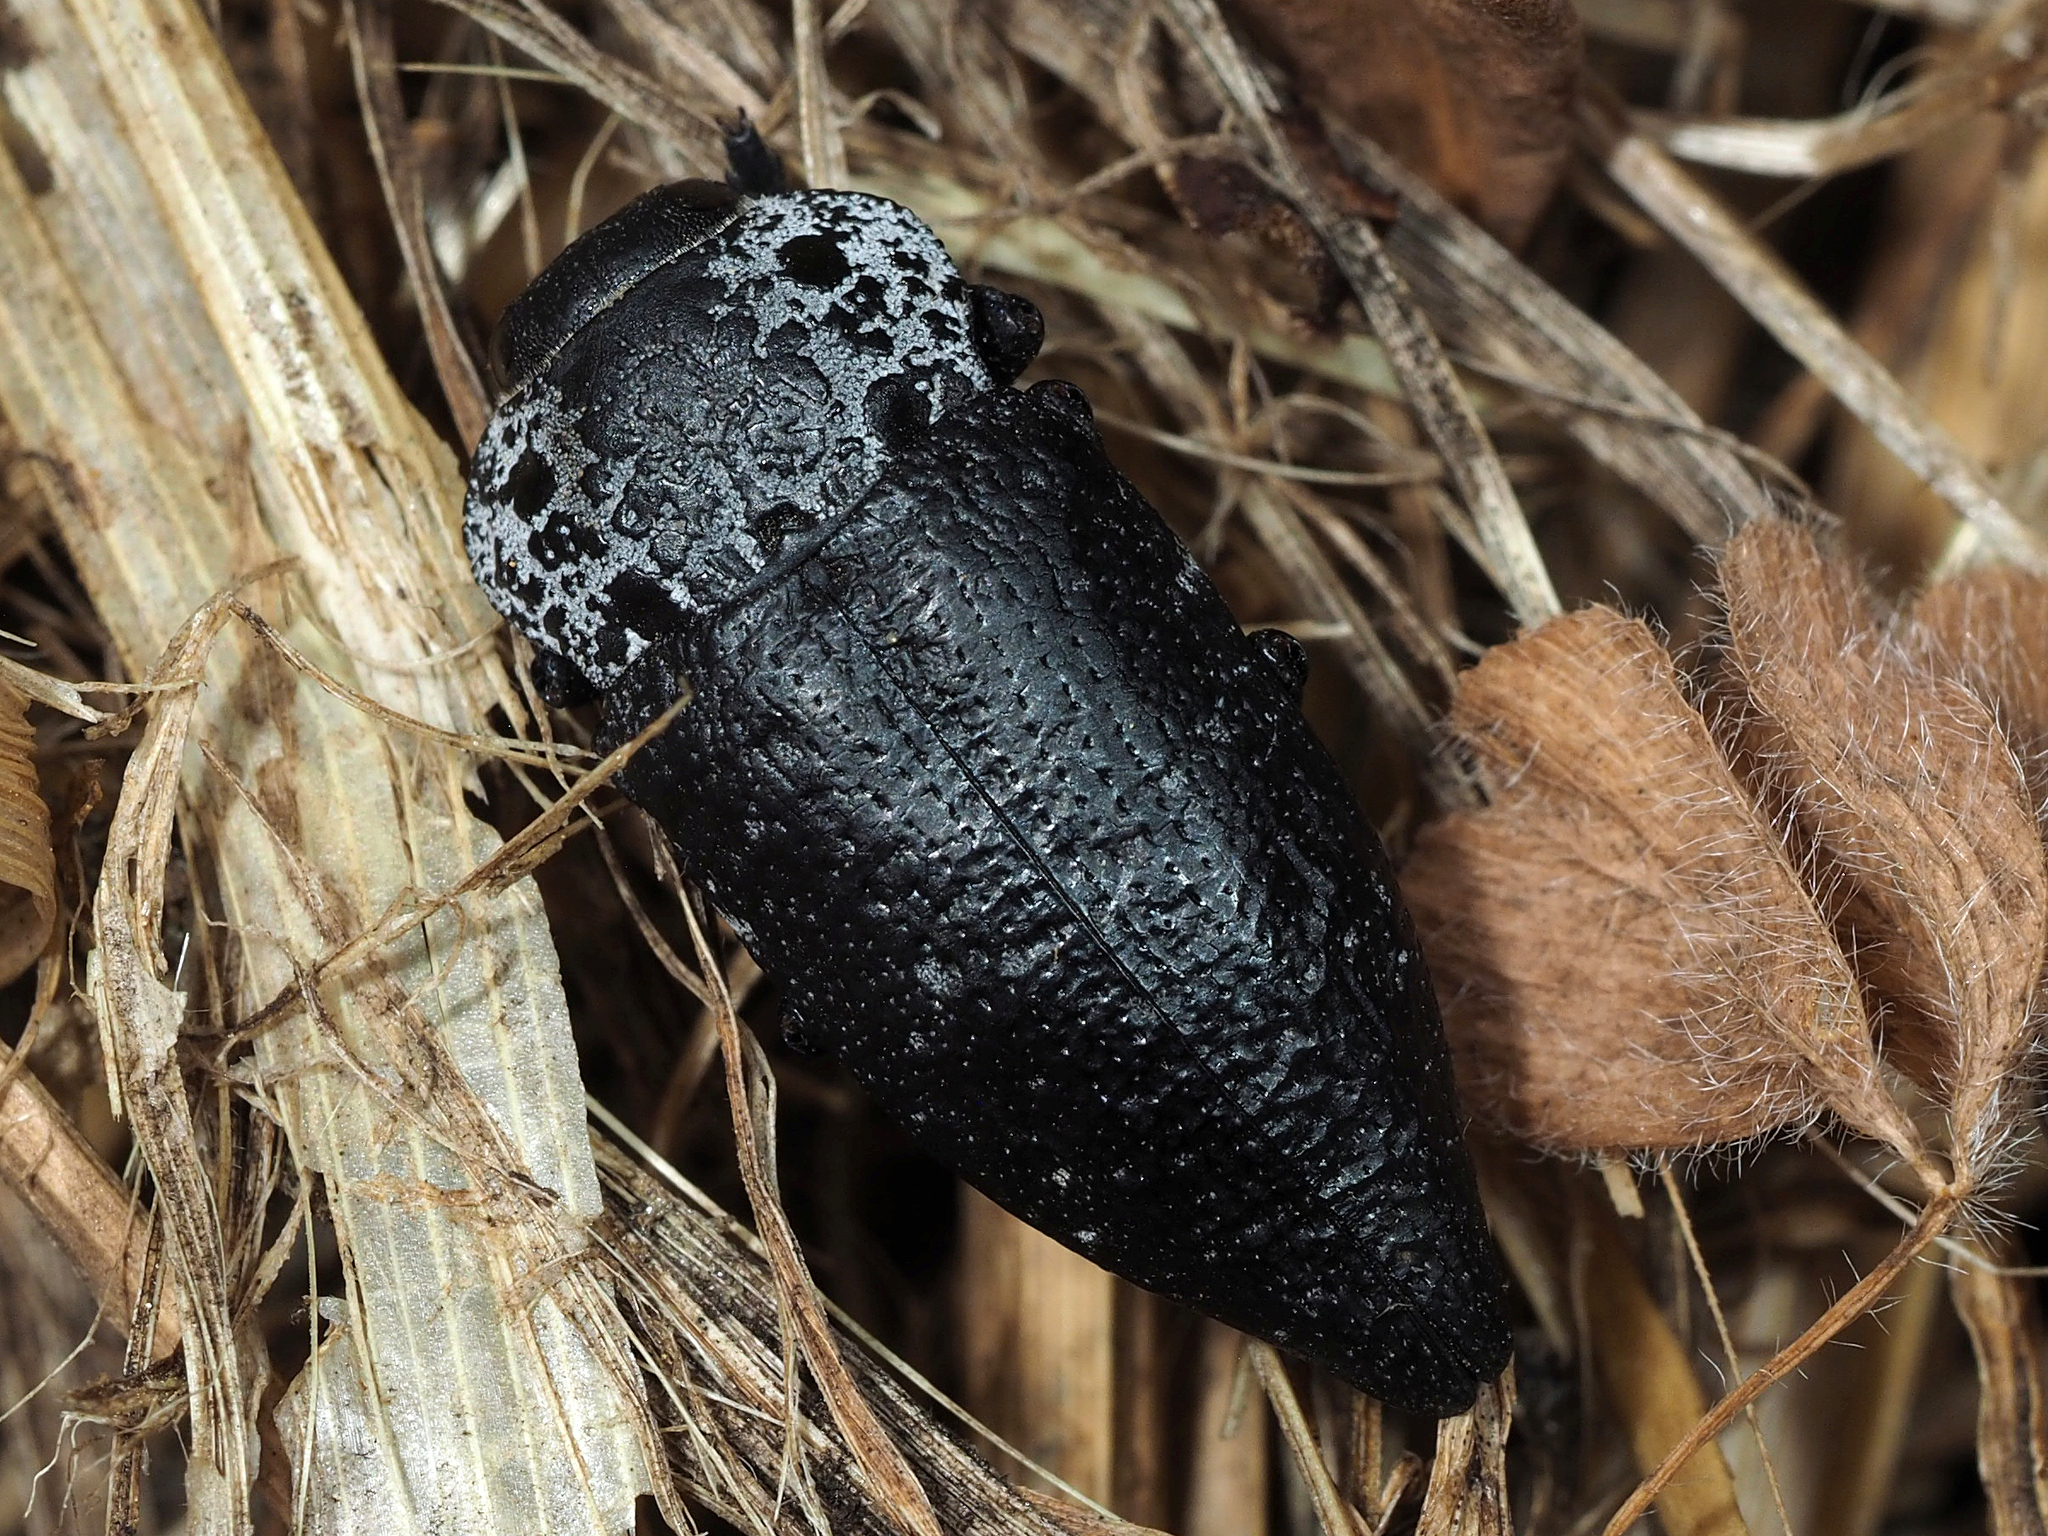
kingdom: Animalia
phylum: Arthropoda
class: Insecta
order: Coleoptera
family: Buprestidae
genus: Capnodis
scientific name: Capnodis tenebrionis
